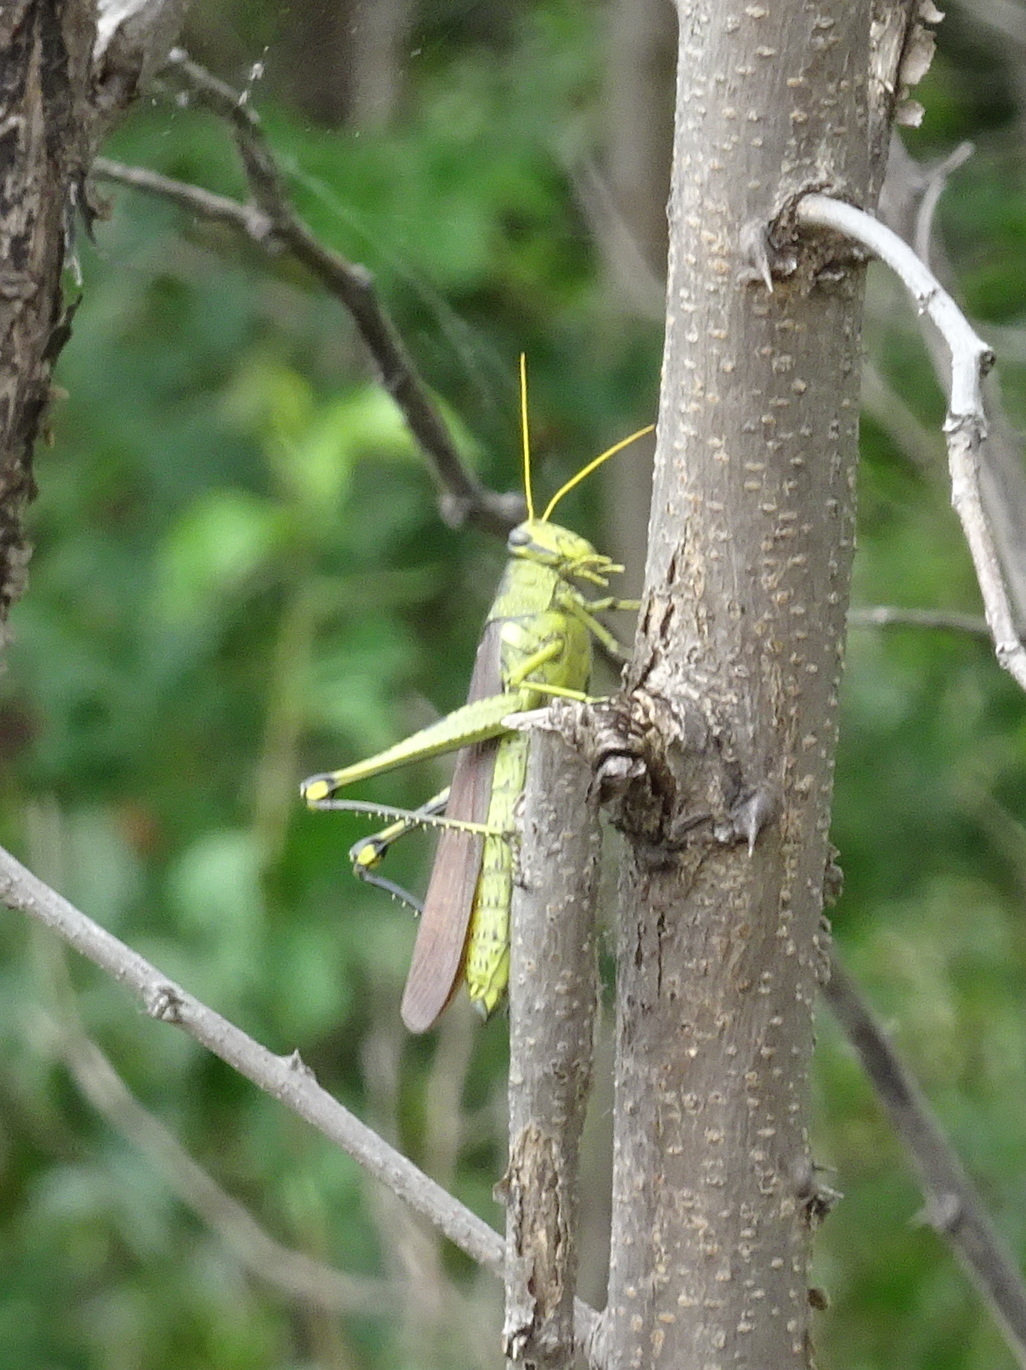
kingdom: Animalia
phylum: Arthropoda
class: Insecta
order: Orthoptera
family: Acrididae
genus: Schistocerca
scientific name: Schistocerca obscura
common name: Obscure bird grasshopper
